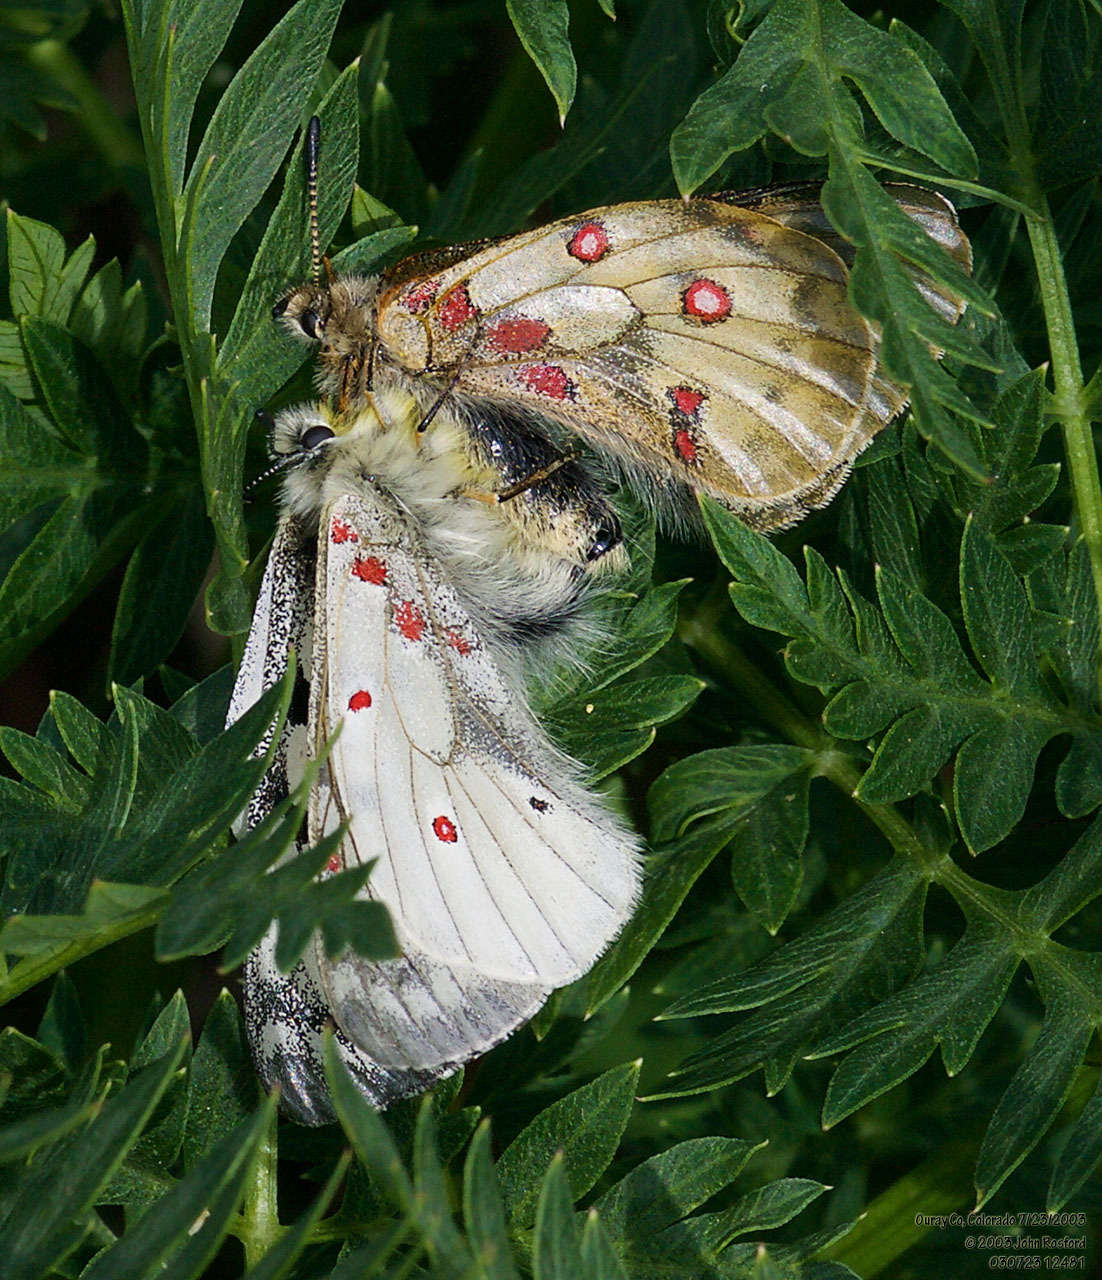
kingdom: Animalia
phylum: Arthropoda
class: Insecta
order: Lepidoptera
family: Papilionidae
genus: Parnassius
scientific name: Parnassius smintheus
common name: Mountain parnassian
